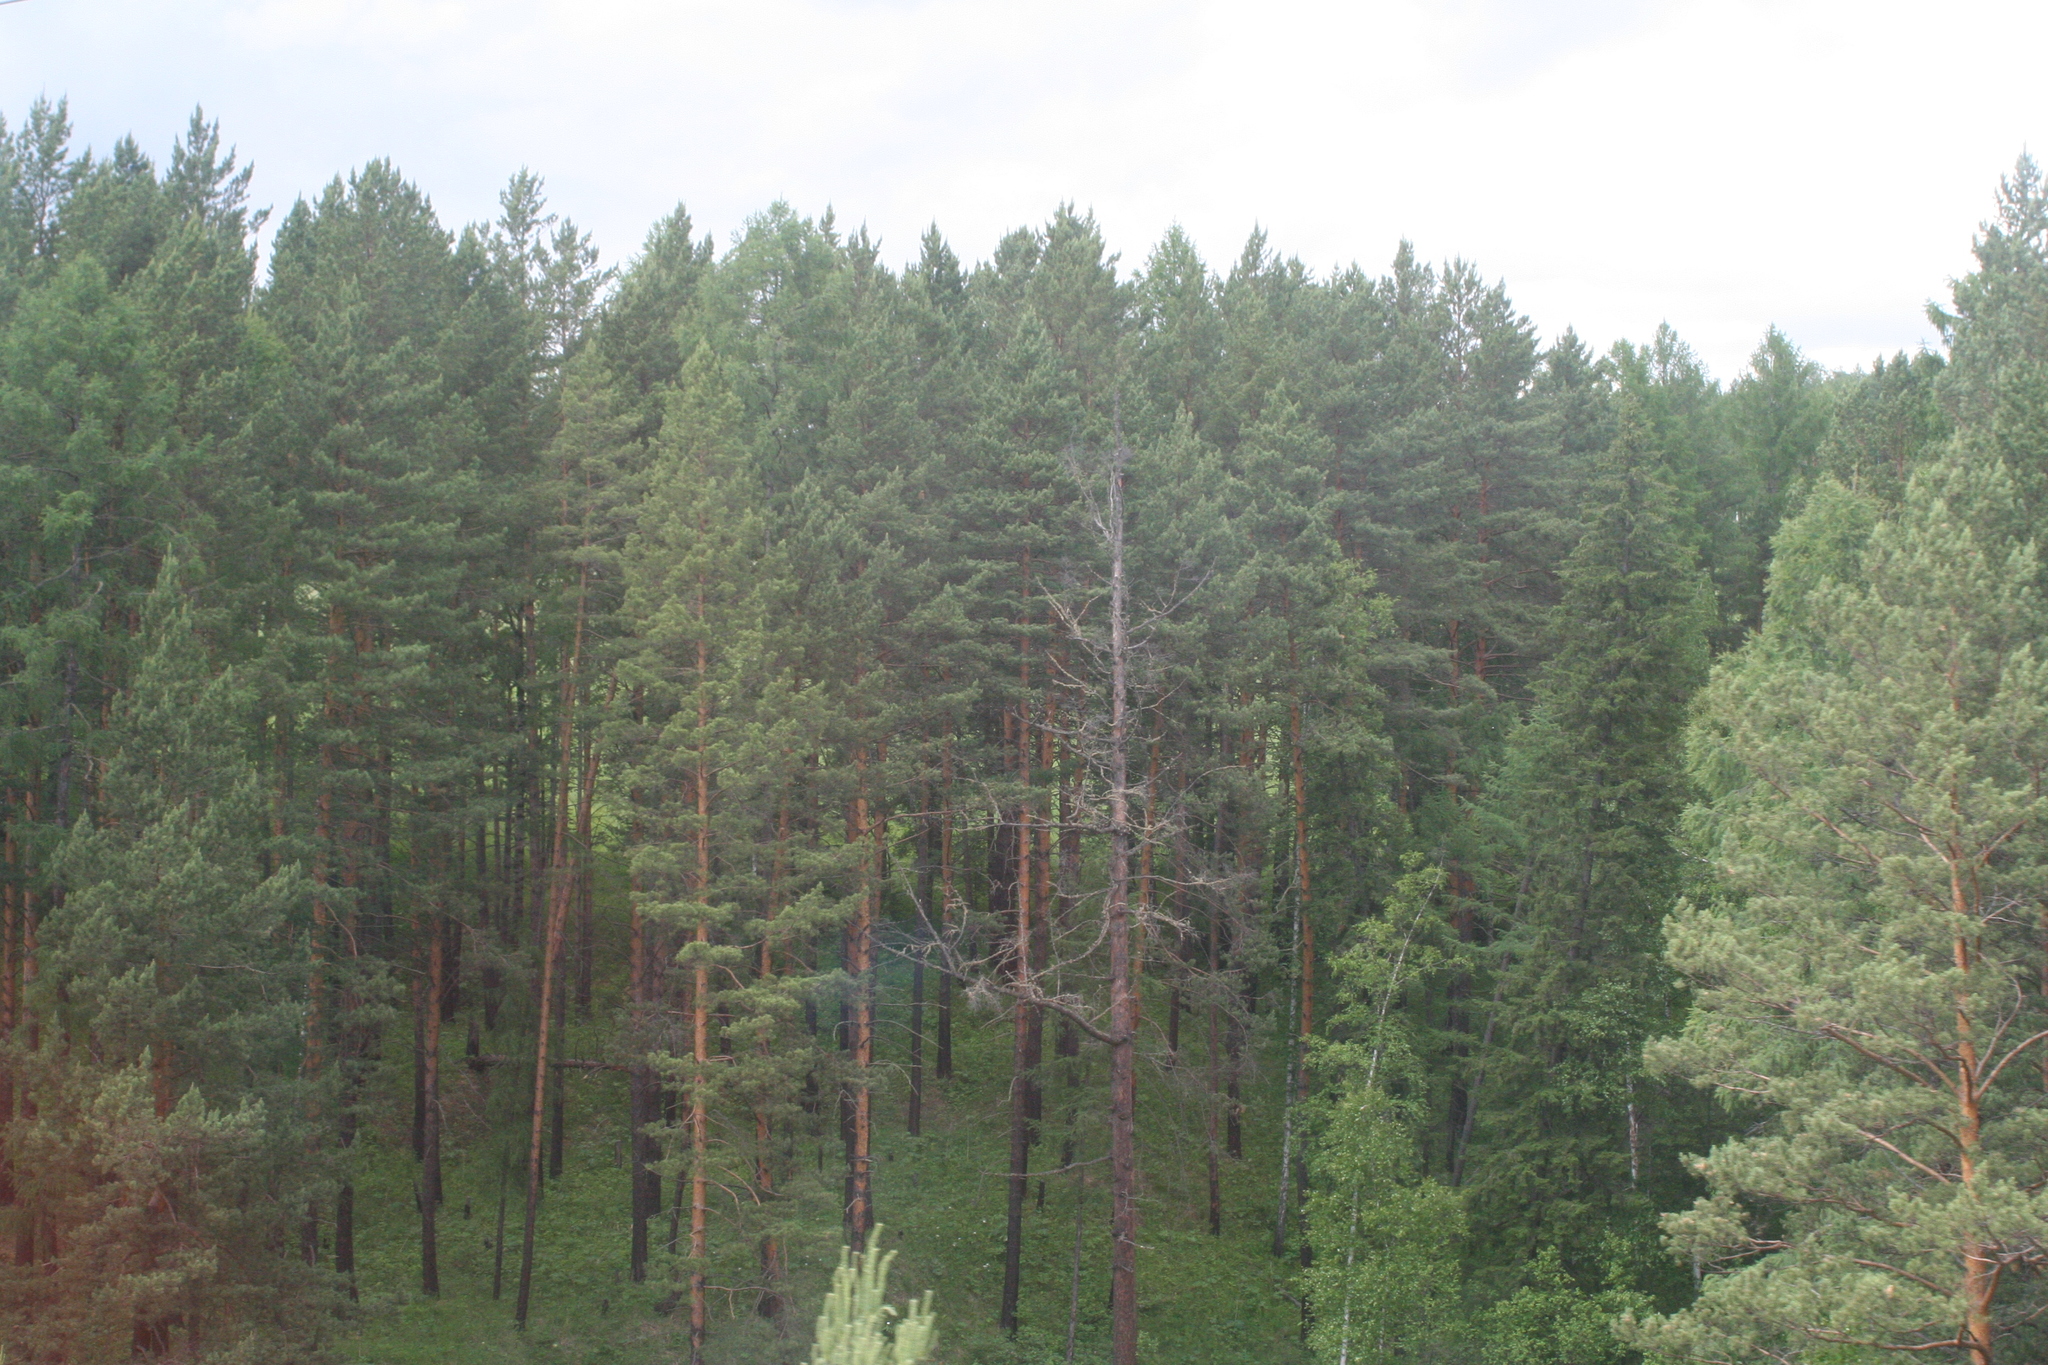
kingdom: Plantae
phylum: Tracheophyta
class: Pinopsida
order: Pinales
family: Pinaceae
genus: Pinus
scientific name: Pinus sylvestris
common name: Scots pine
